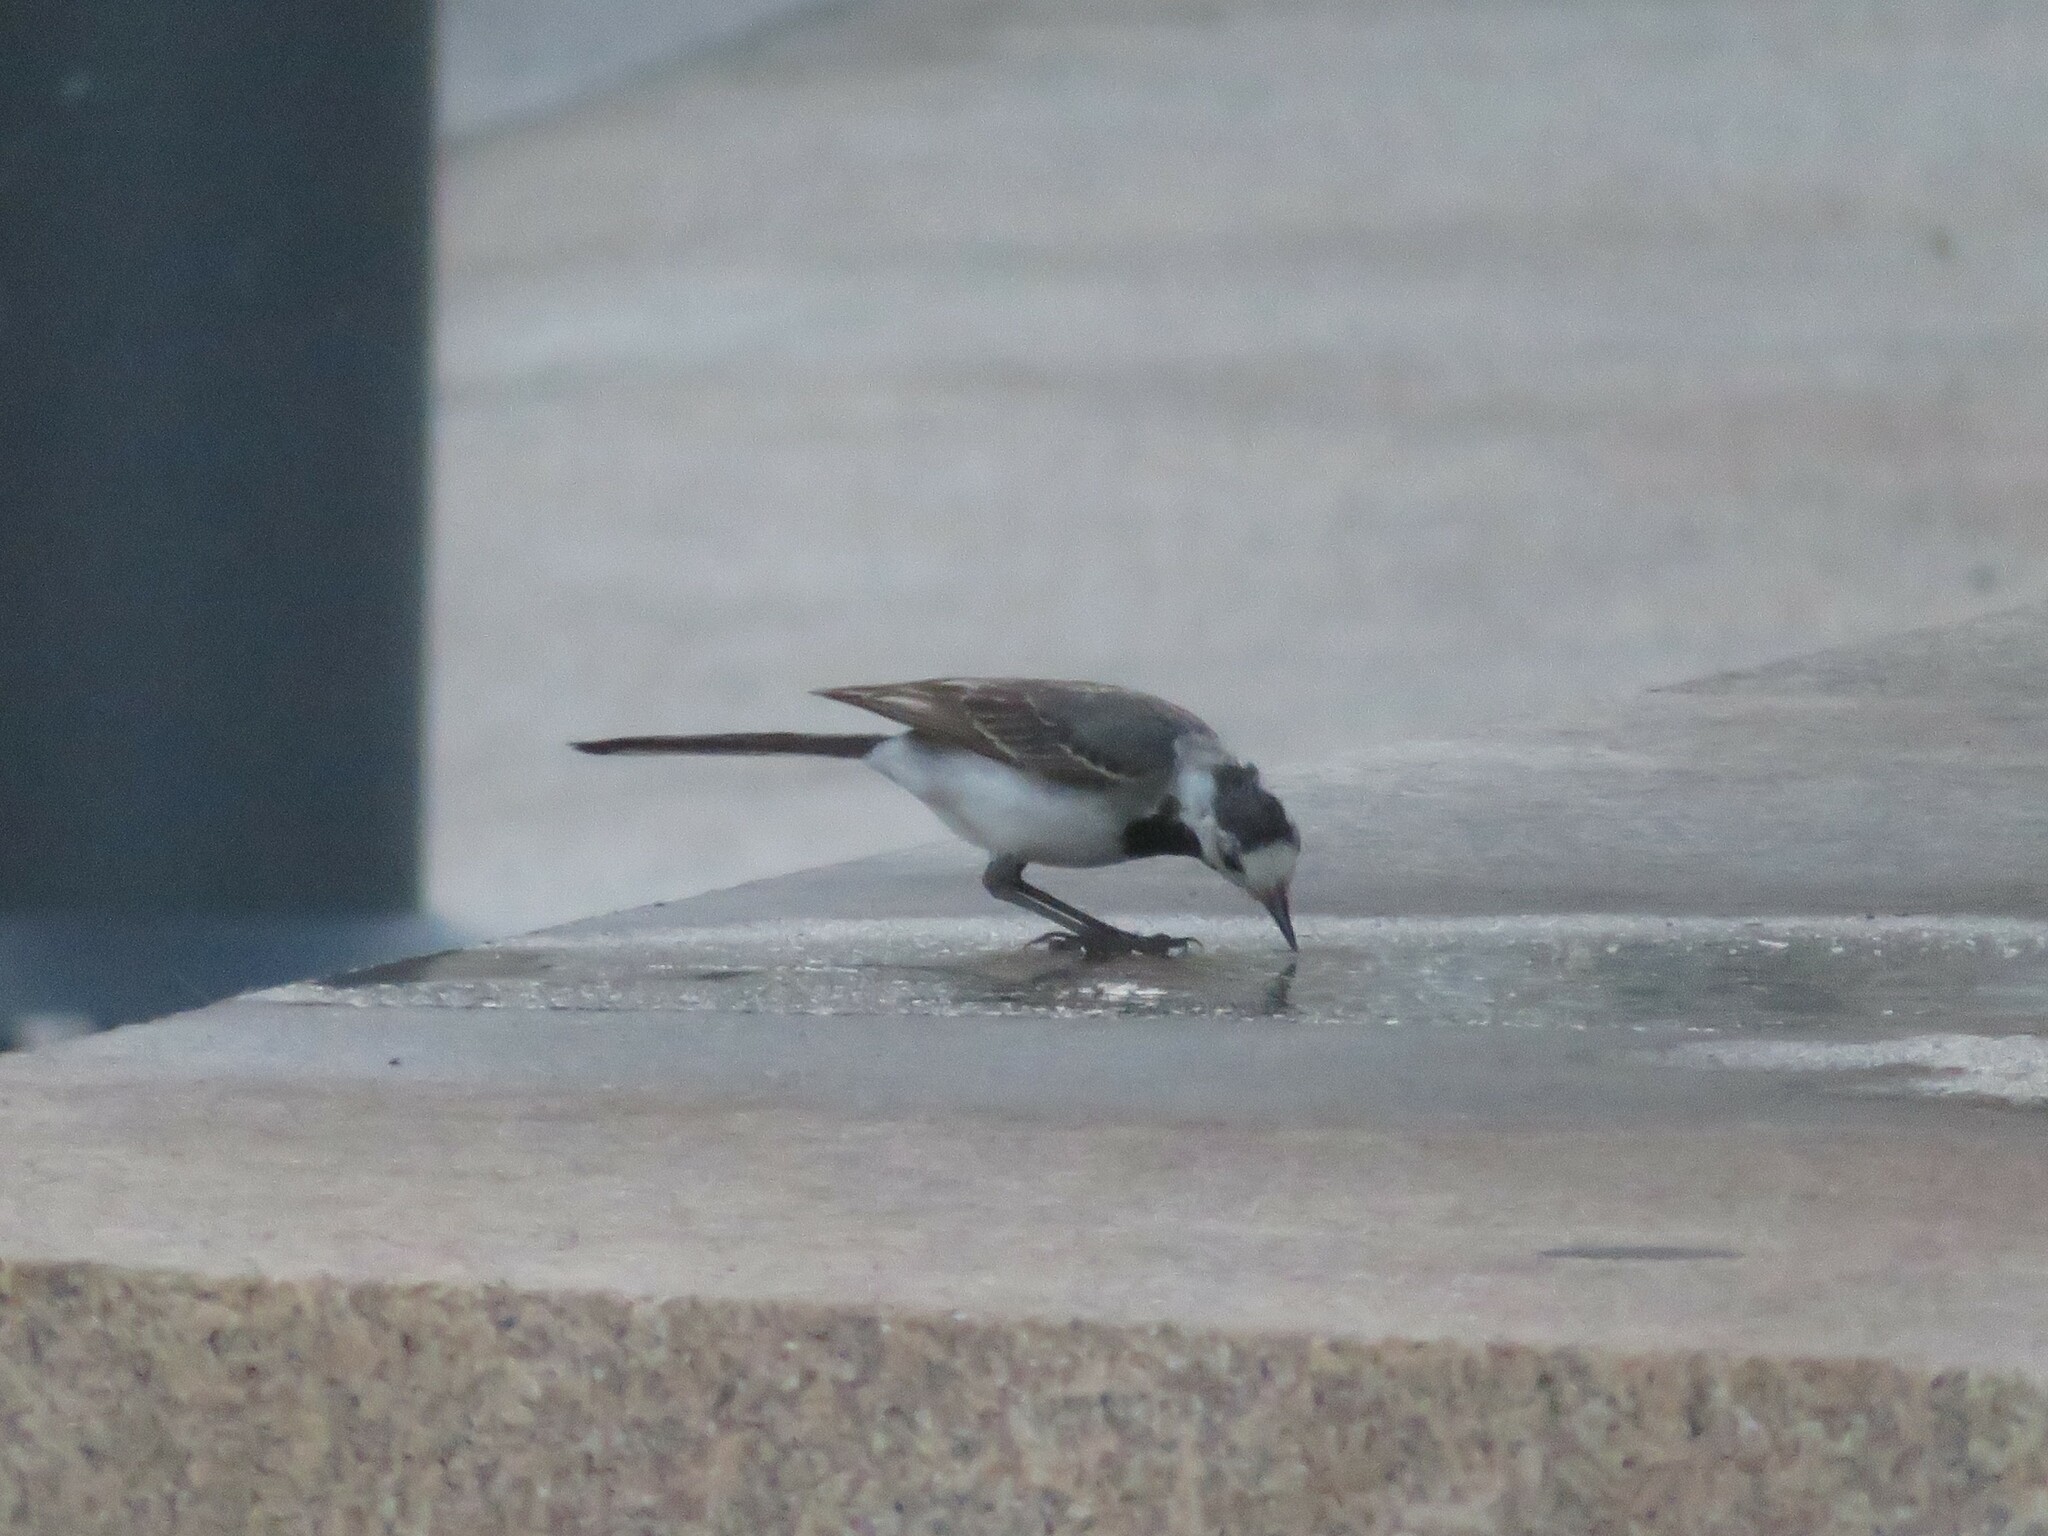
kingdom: Animalia
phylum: Chordata
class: Aves
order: Passeriformes
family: Motacillidae
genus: Motacilla
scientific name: Motacilla alba
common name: White wagtail
